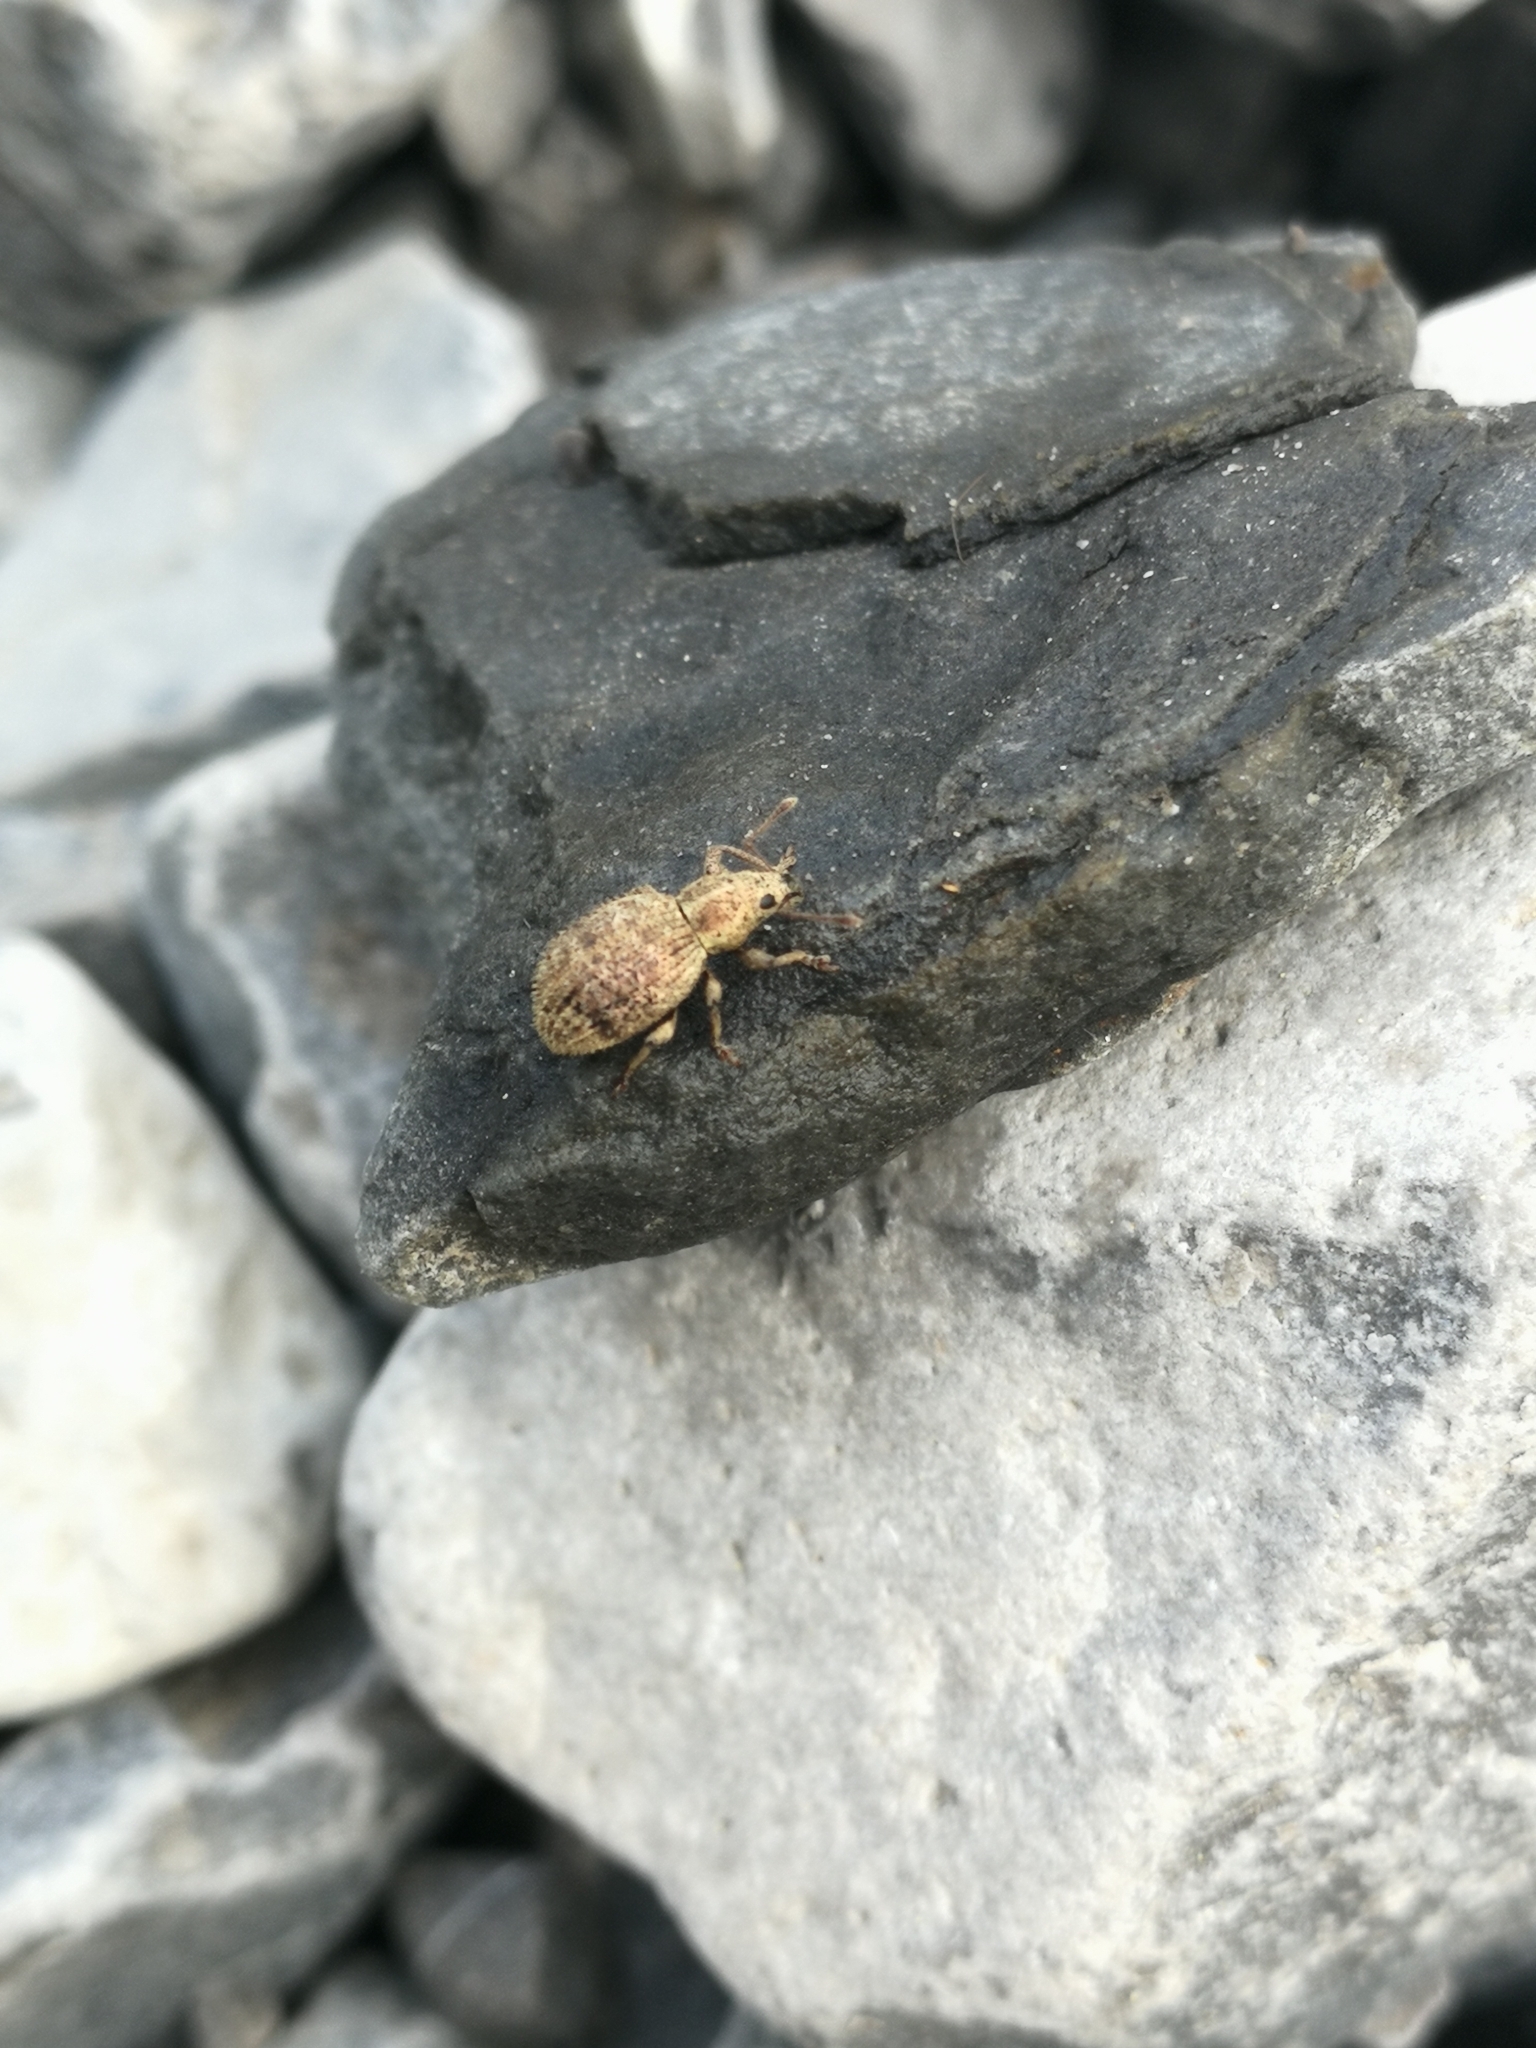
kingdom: Animalia
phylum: Arthropoda
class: Insecta
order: Coleoptera
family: Curculionidae
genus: Sciaphilus
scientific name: Sciaphilus asperatus
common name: Weevil
